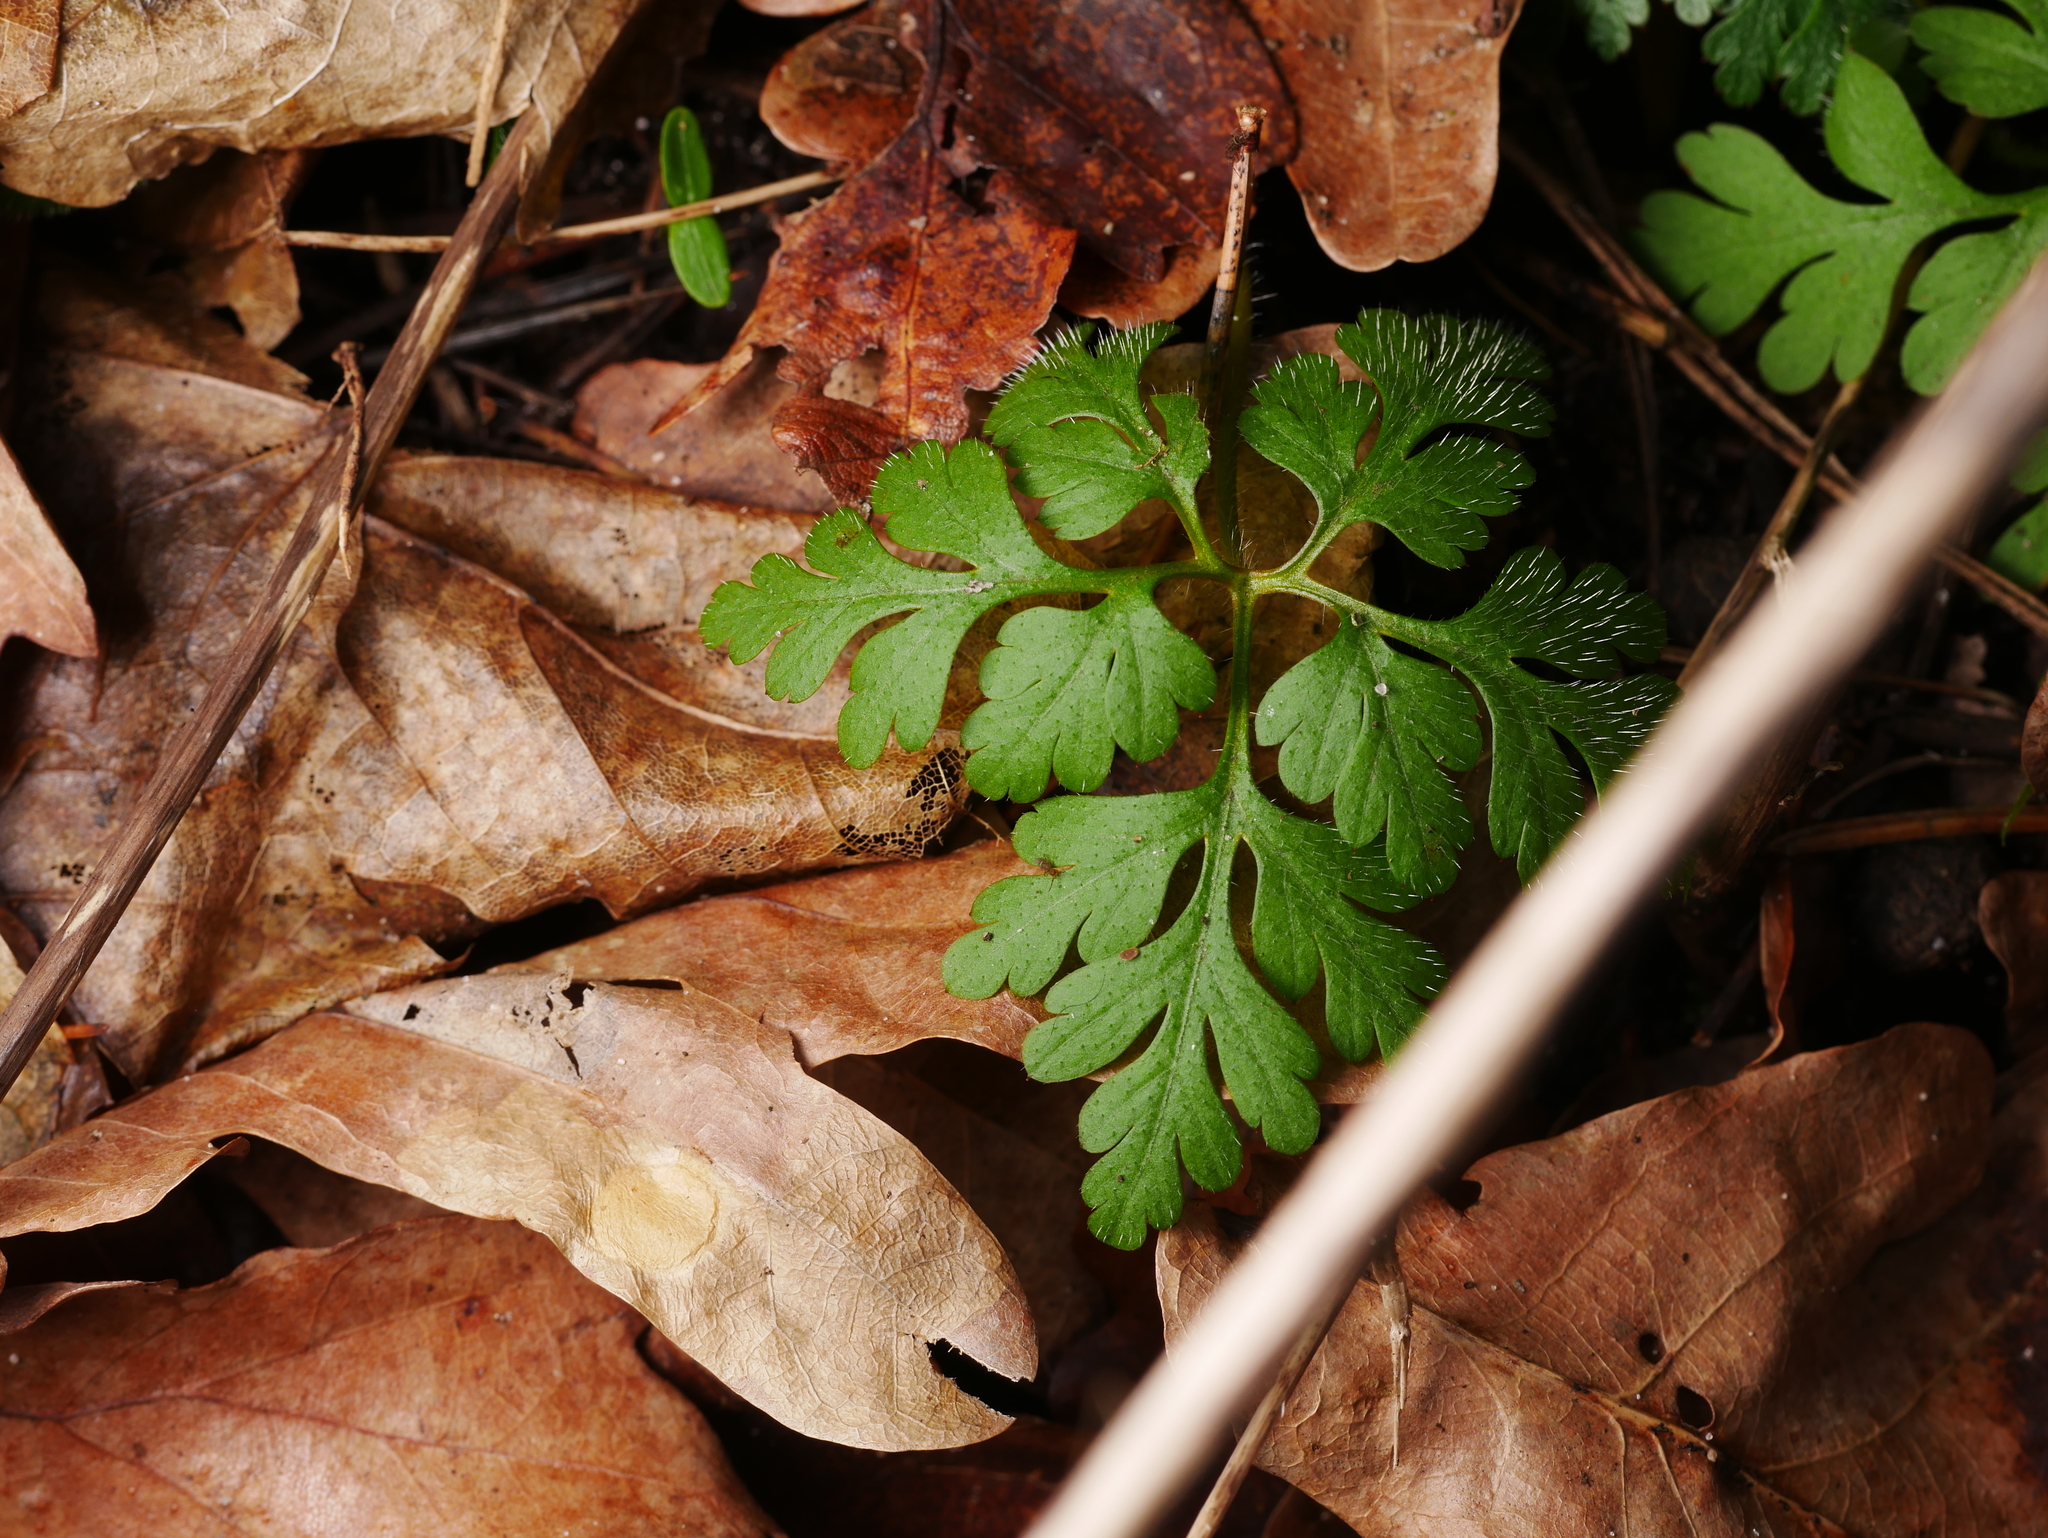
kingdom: Plantae
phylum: Tracheophyta
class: Magnoliopsida
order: Geraniales
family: Geraniaceae
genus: Geranium
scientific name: Geranium robertianum
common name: Herb-robert
